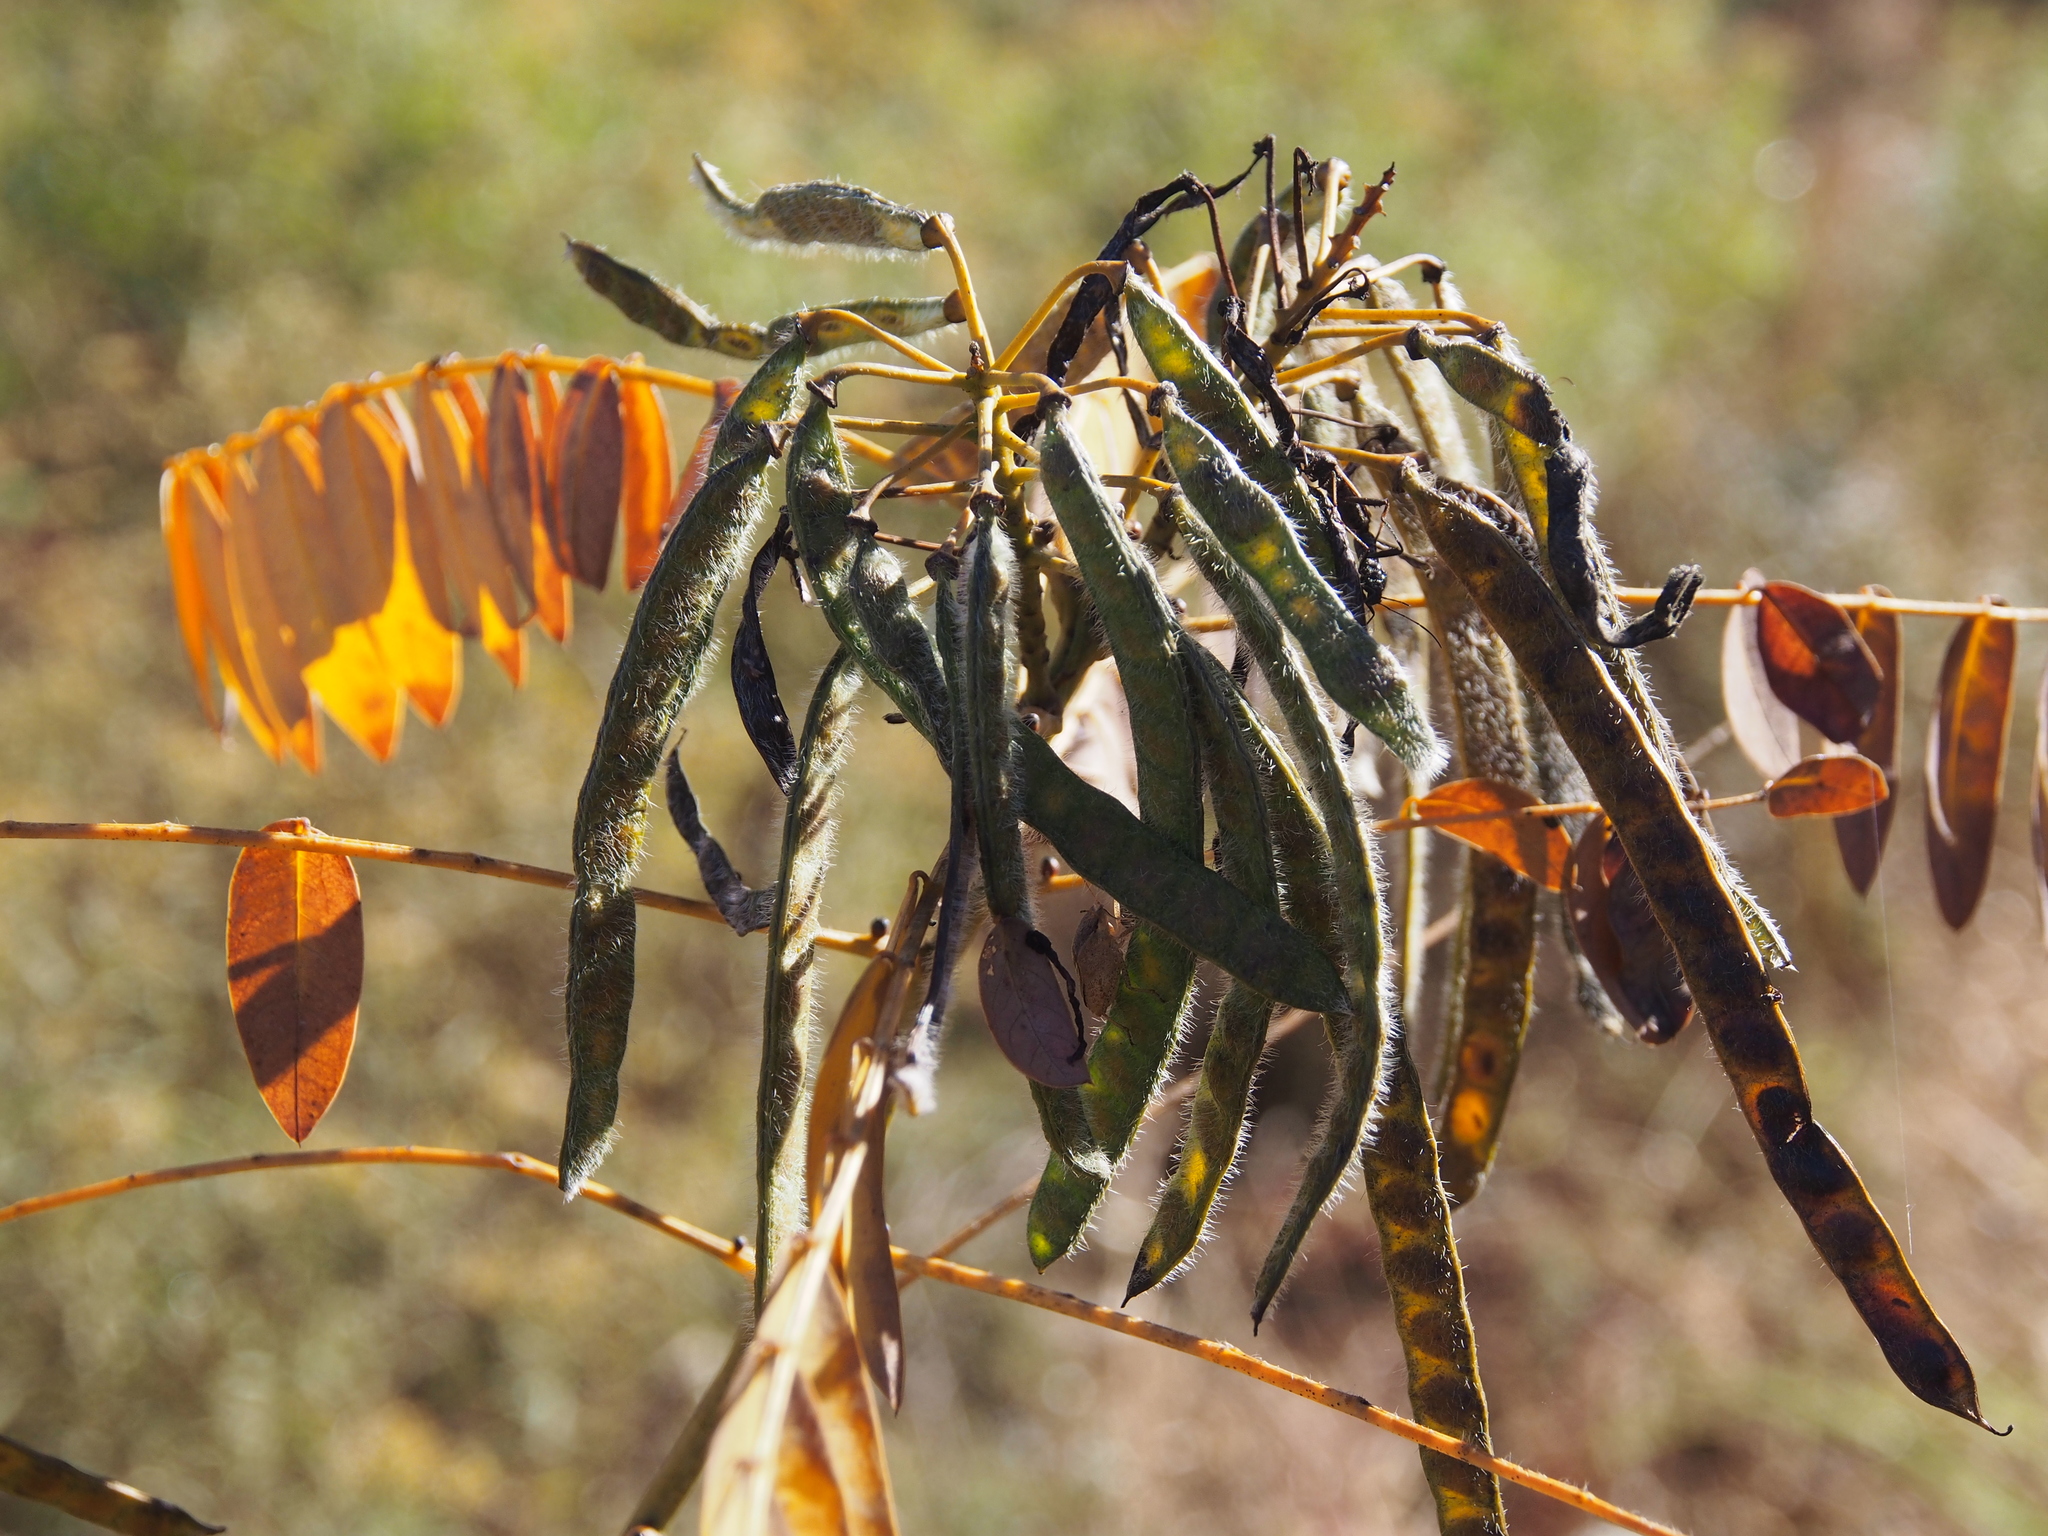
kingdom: Plantae
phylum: Tracheophyta
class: Magnoliopsida
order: Fabales
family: Fabaceae
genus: Senna
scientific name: Senna hebecarpa
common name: Wild senna
